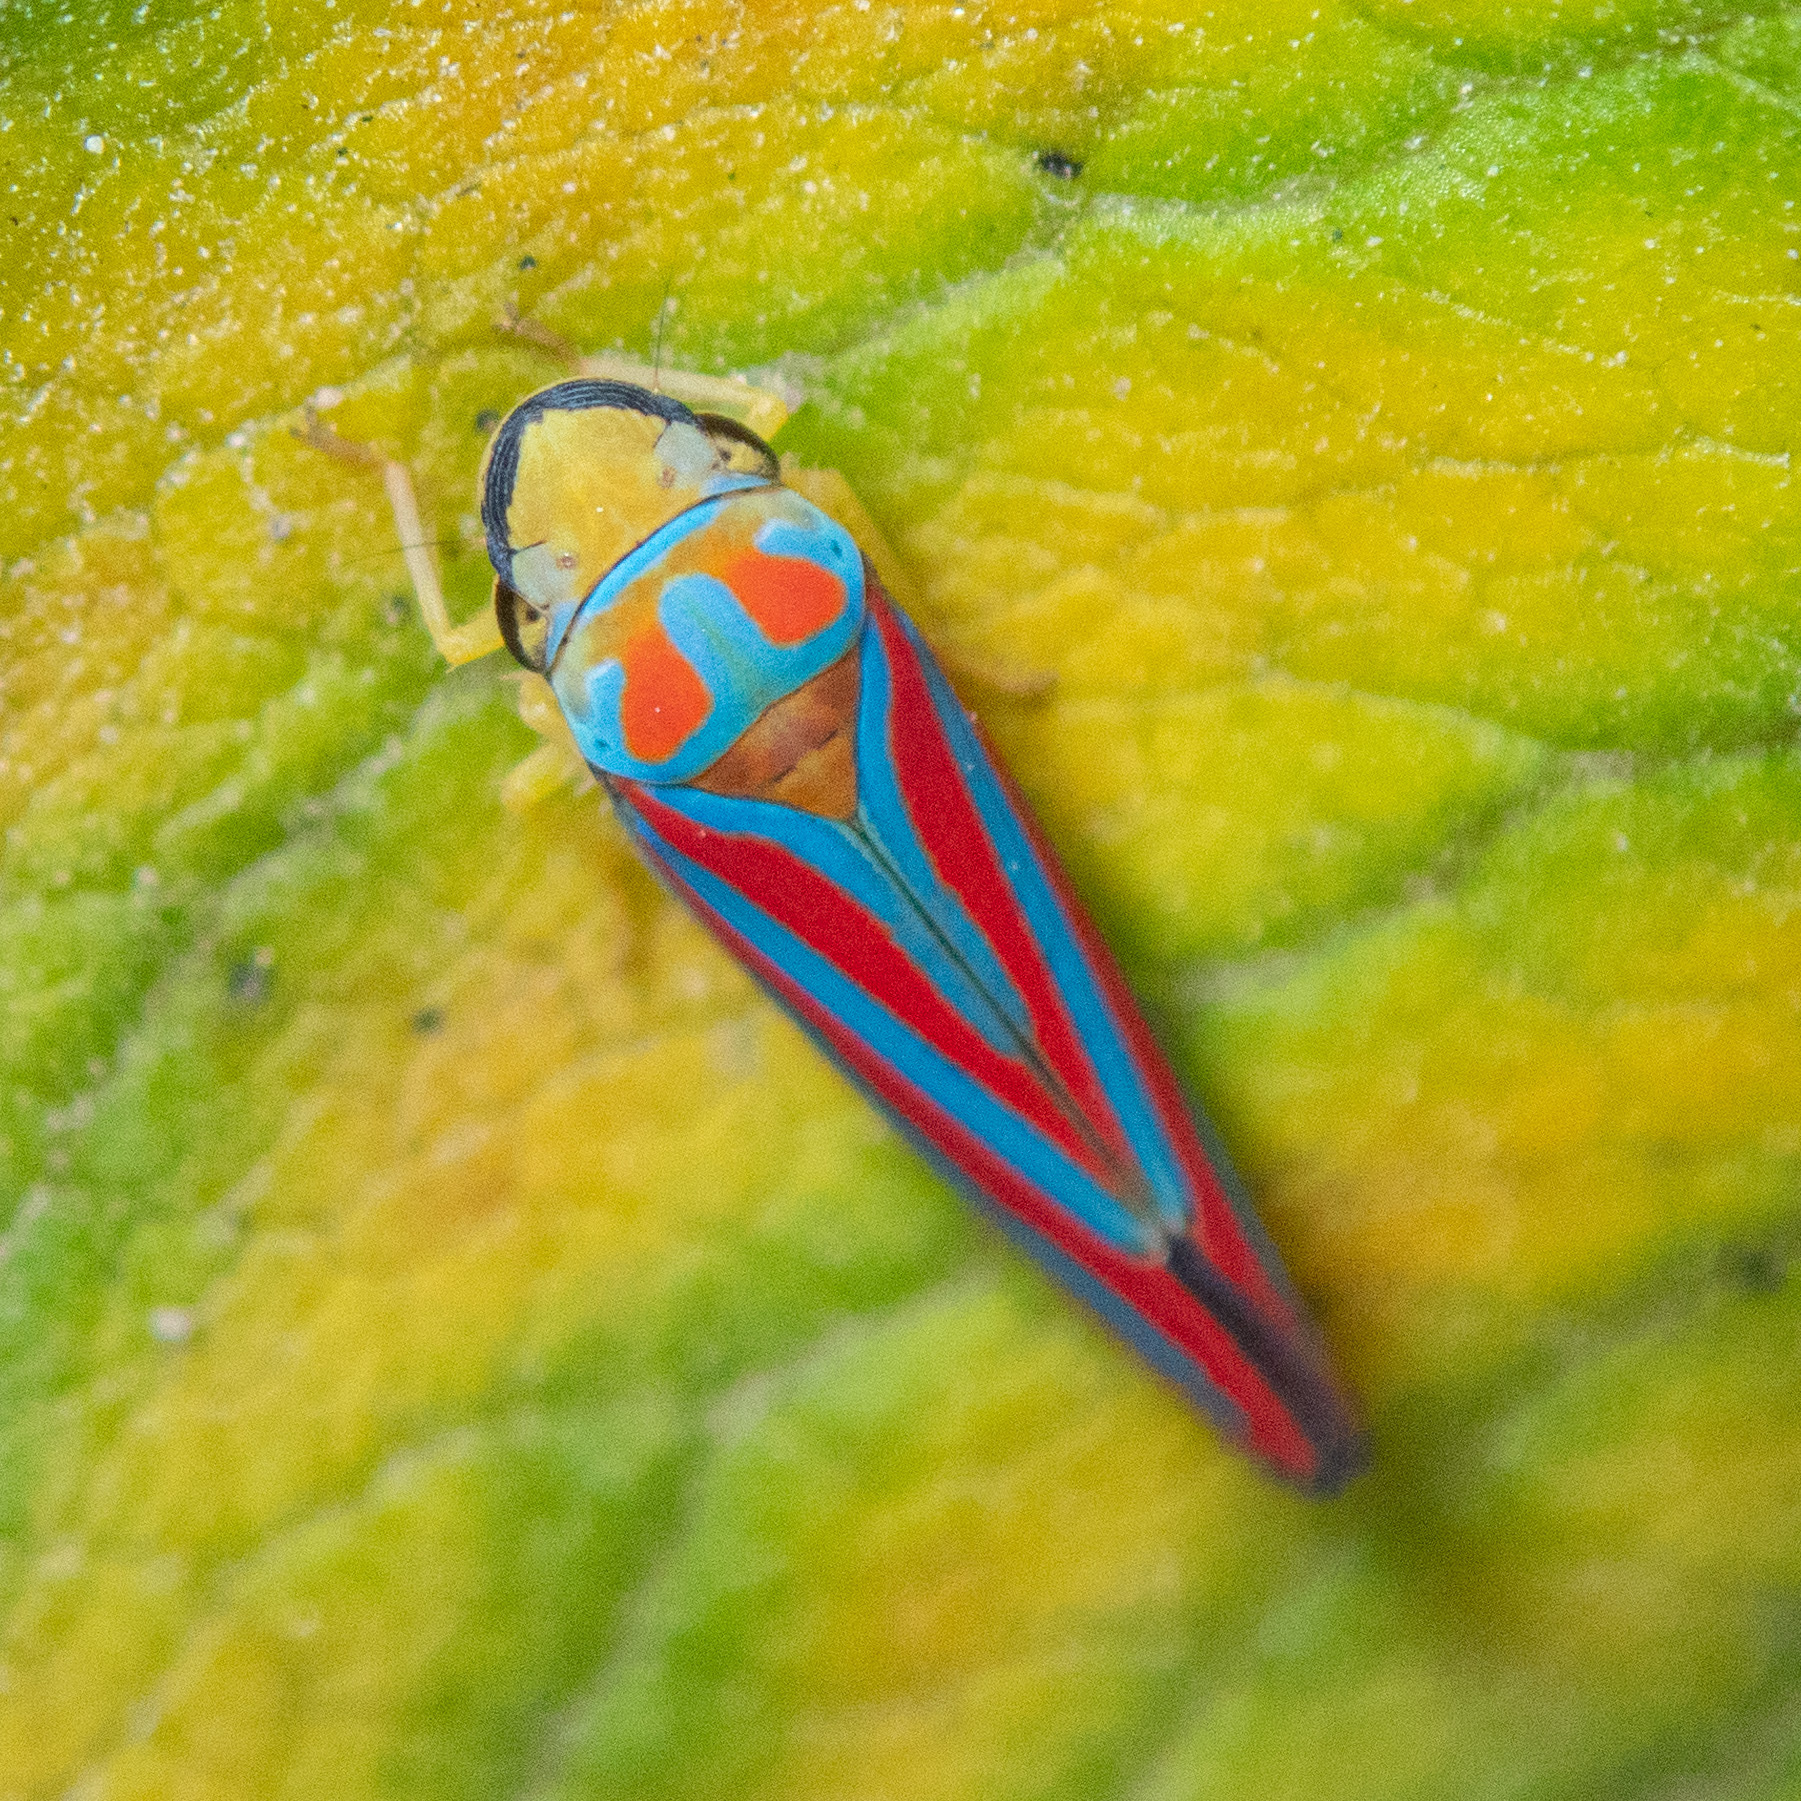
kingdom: Animalia
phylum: Arthropoda
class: Insecta
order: Hemiptera
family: Cicadellidae
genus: Graphocephala
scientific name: Graphocephala coccinea
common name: Candy-striped leafhopper
